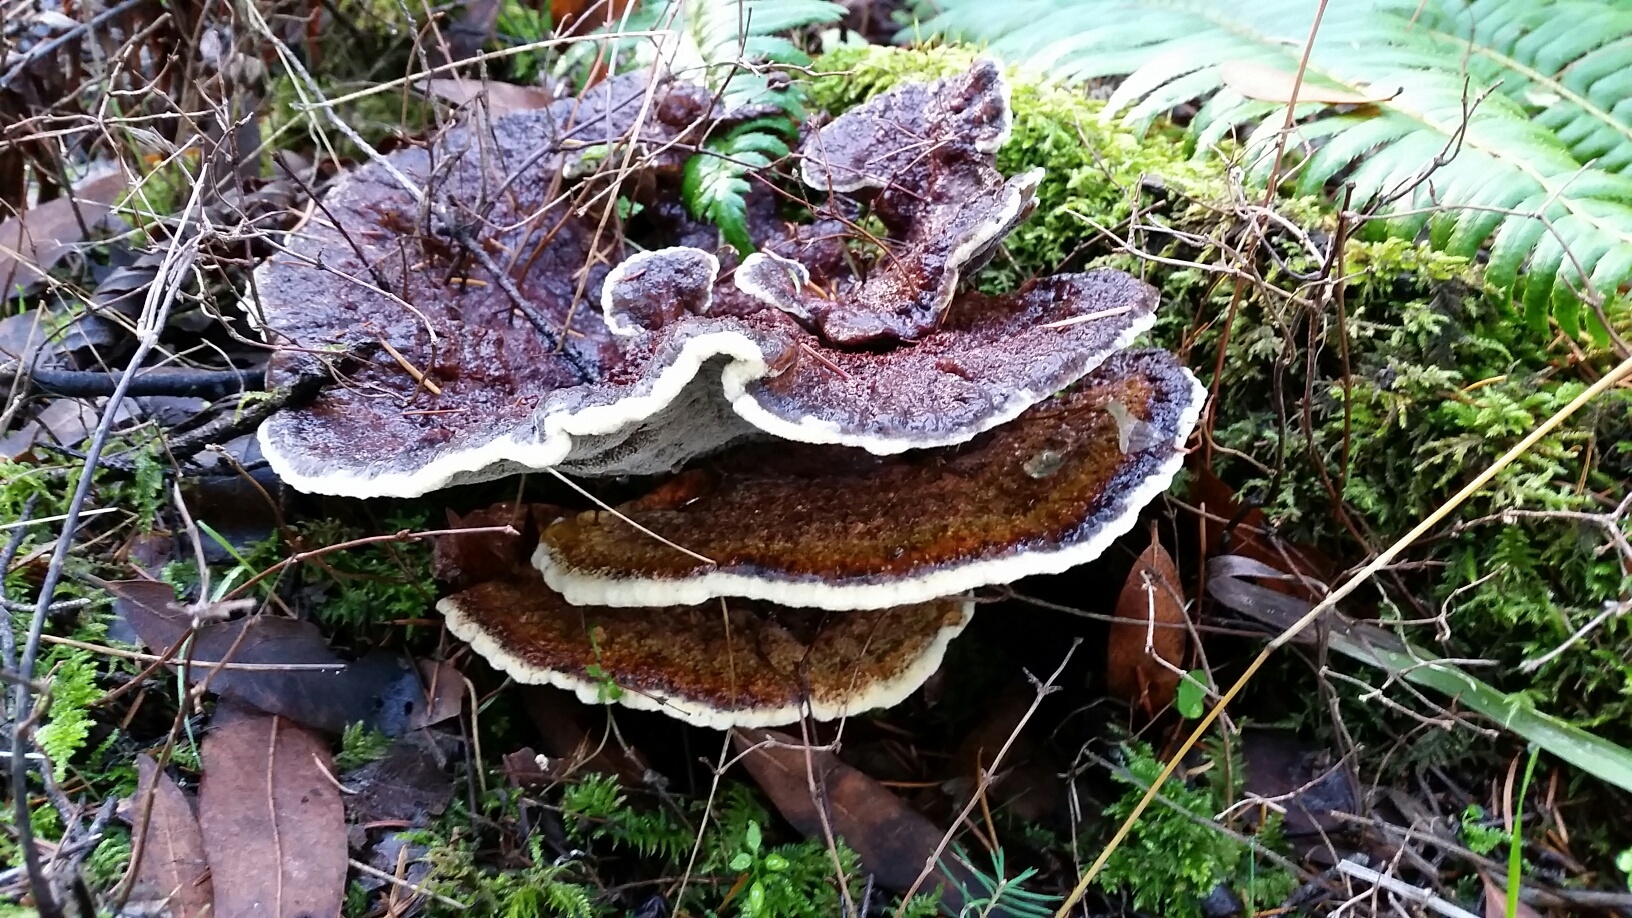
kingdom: Fungi
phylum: Basidiomycota
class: Agaricomycetes
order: Polyporales
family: Laetiporaceae
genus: Phaeolus
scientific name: Phaeolus schweinitzii
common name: Dyer's mazegill
